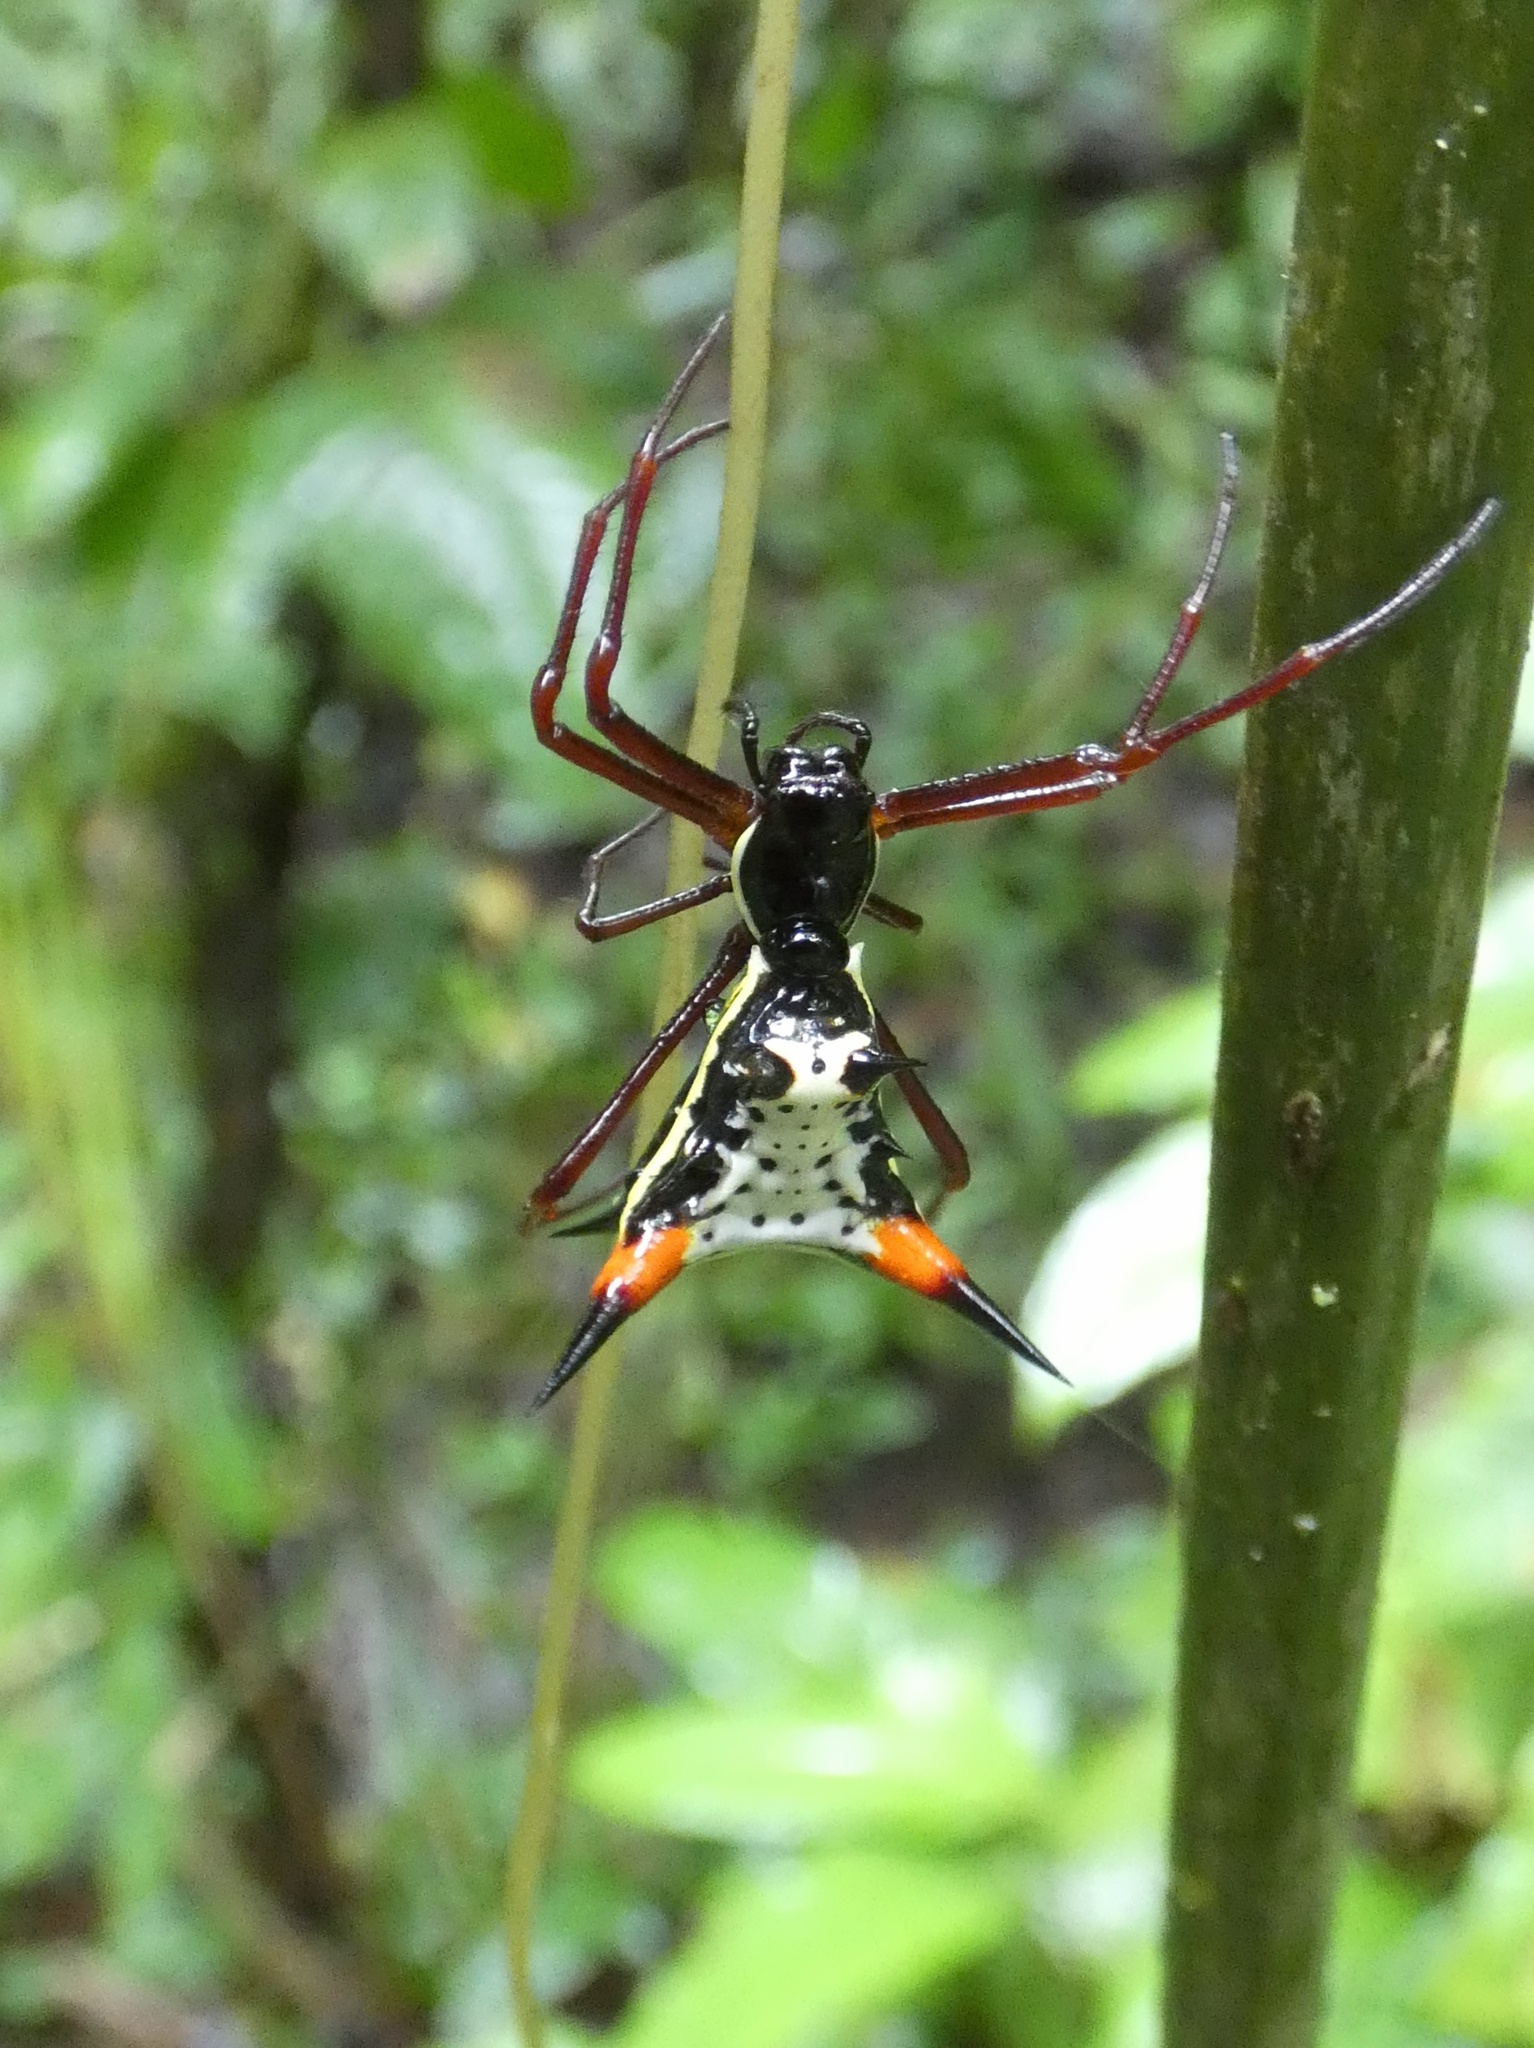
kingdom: Animalia
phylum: Arthropoda
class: Arachnida
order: Araneae
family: Araneidae
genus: Micrathena
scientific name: Micrathena schreibersi
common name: Orb weavers
